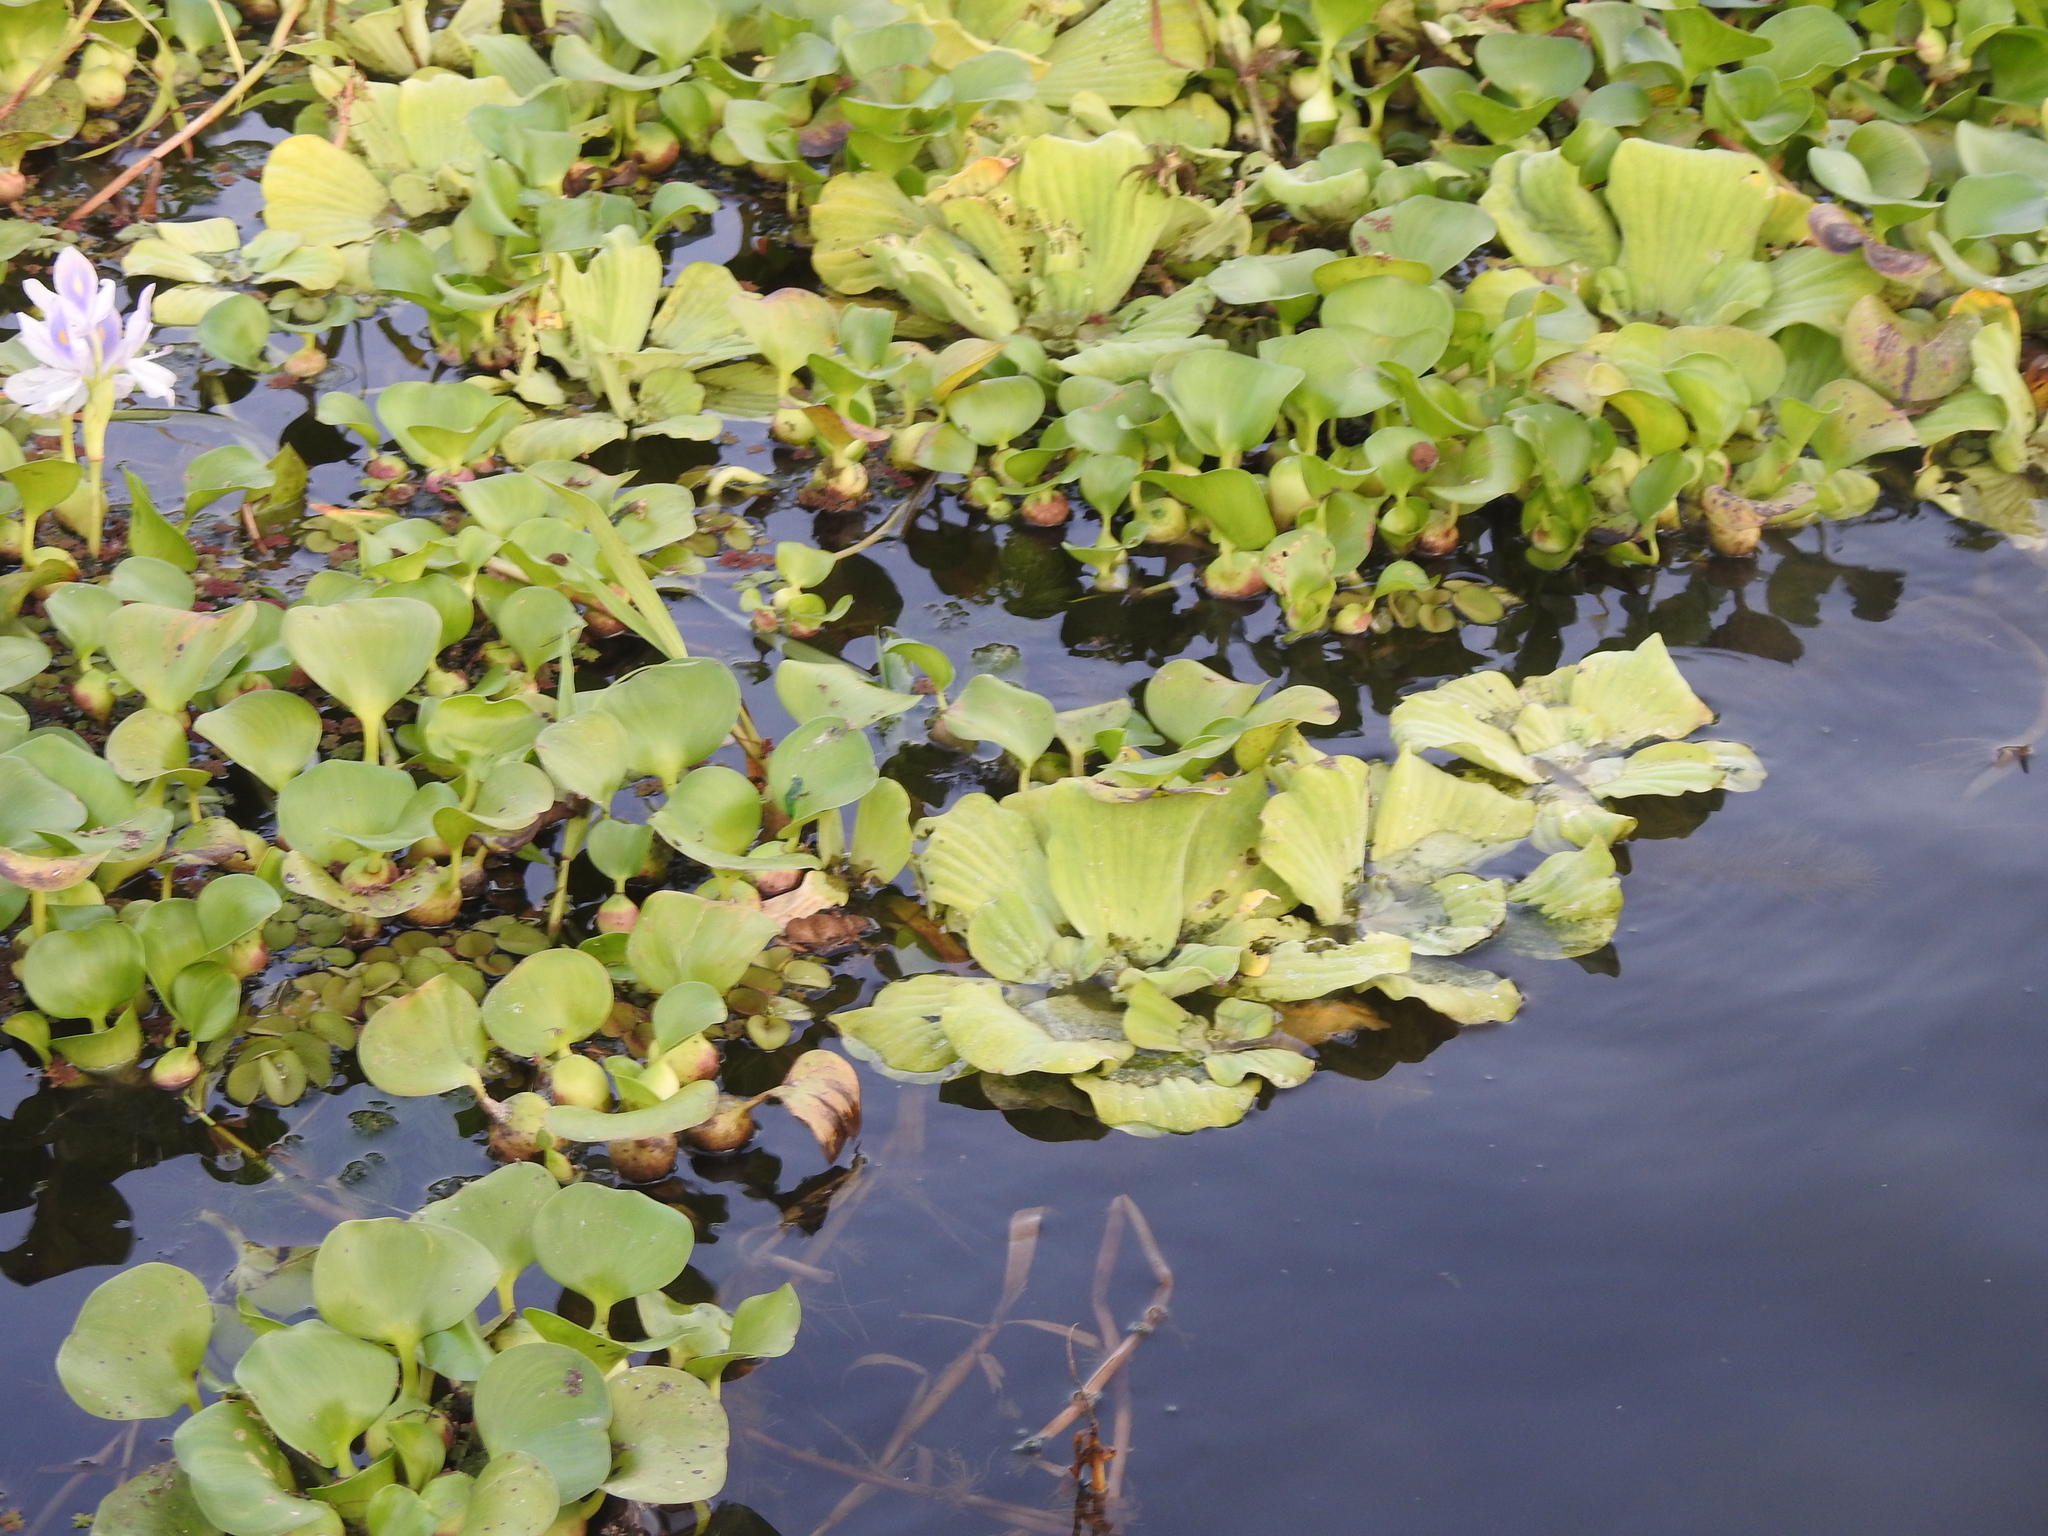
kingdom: Plantae
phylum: Tracheophyta
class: Liliopsida
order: Alismatales
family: Araceae
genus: Pistia
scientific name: Pistia stratiotes
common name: Water lettuce
